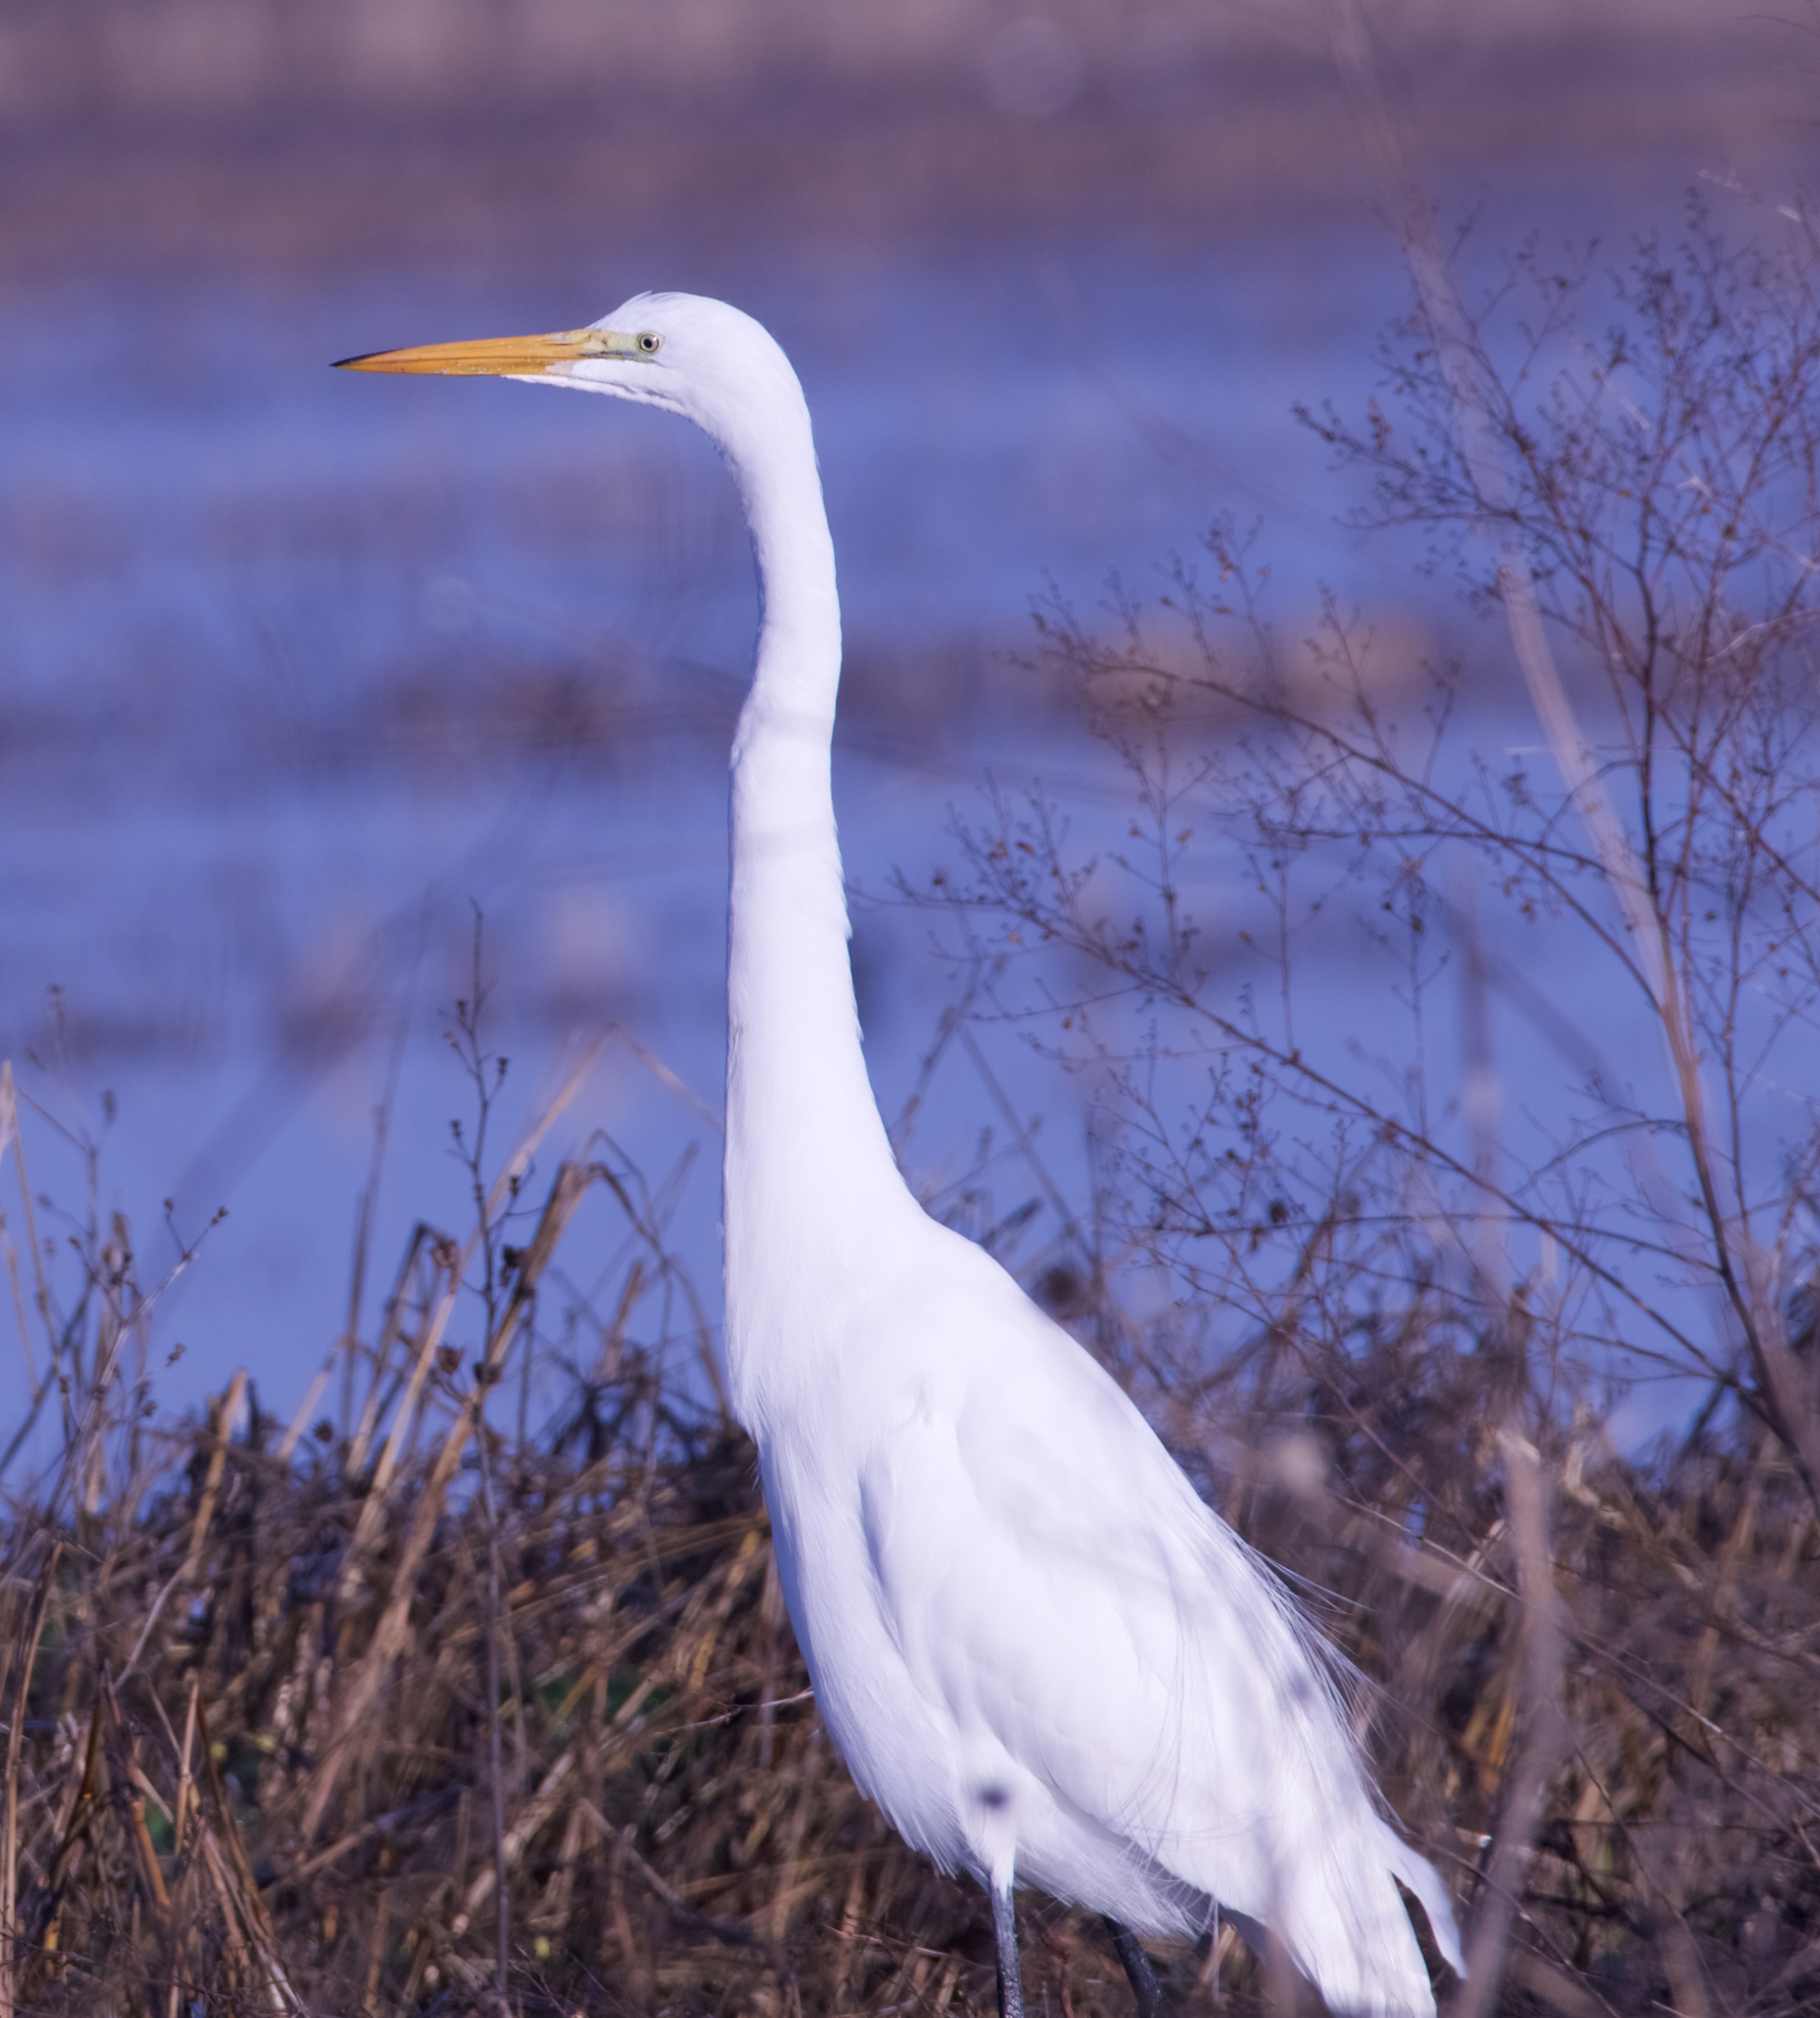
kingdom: Animalia
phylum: Chordata
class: Aves
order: Pelecaniformes
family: Ardeidae
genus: Ardea
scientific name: Ardea alba
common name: Great egret
